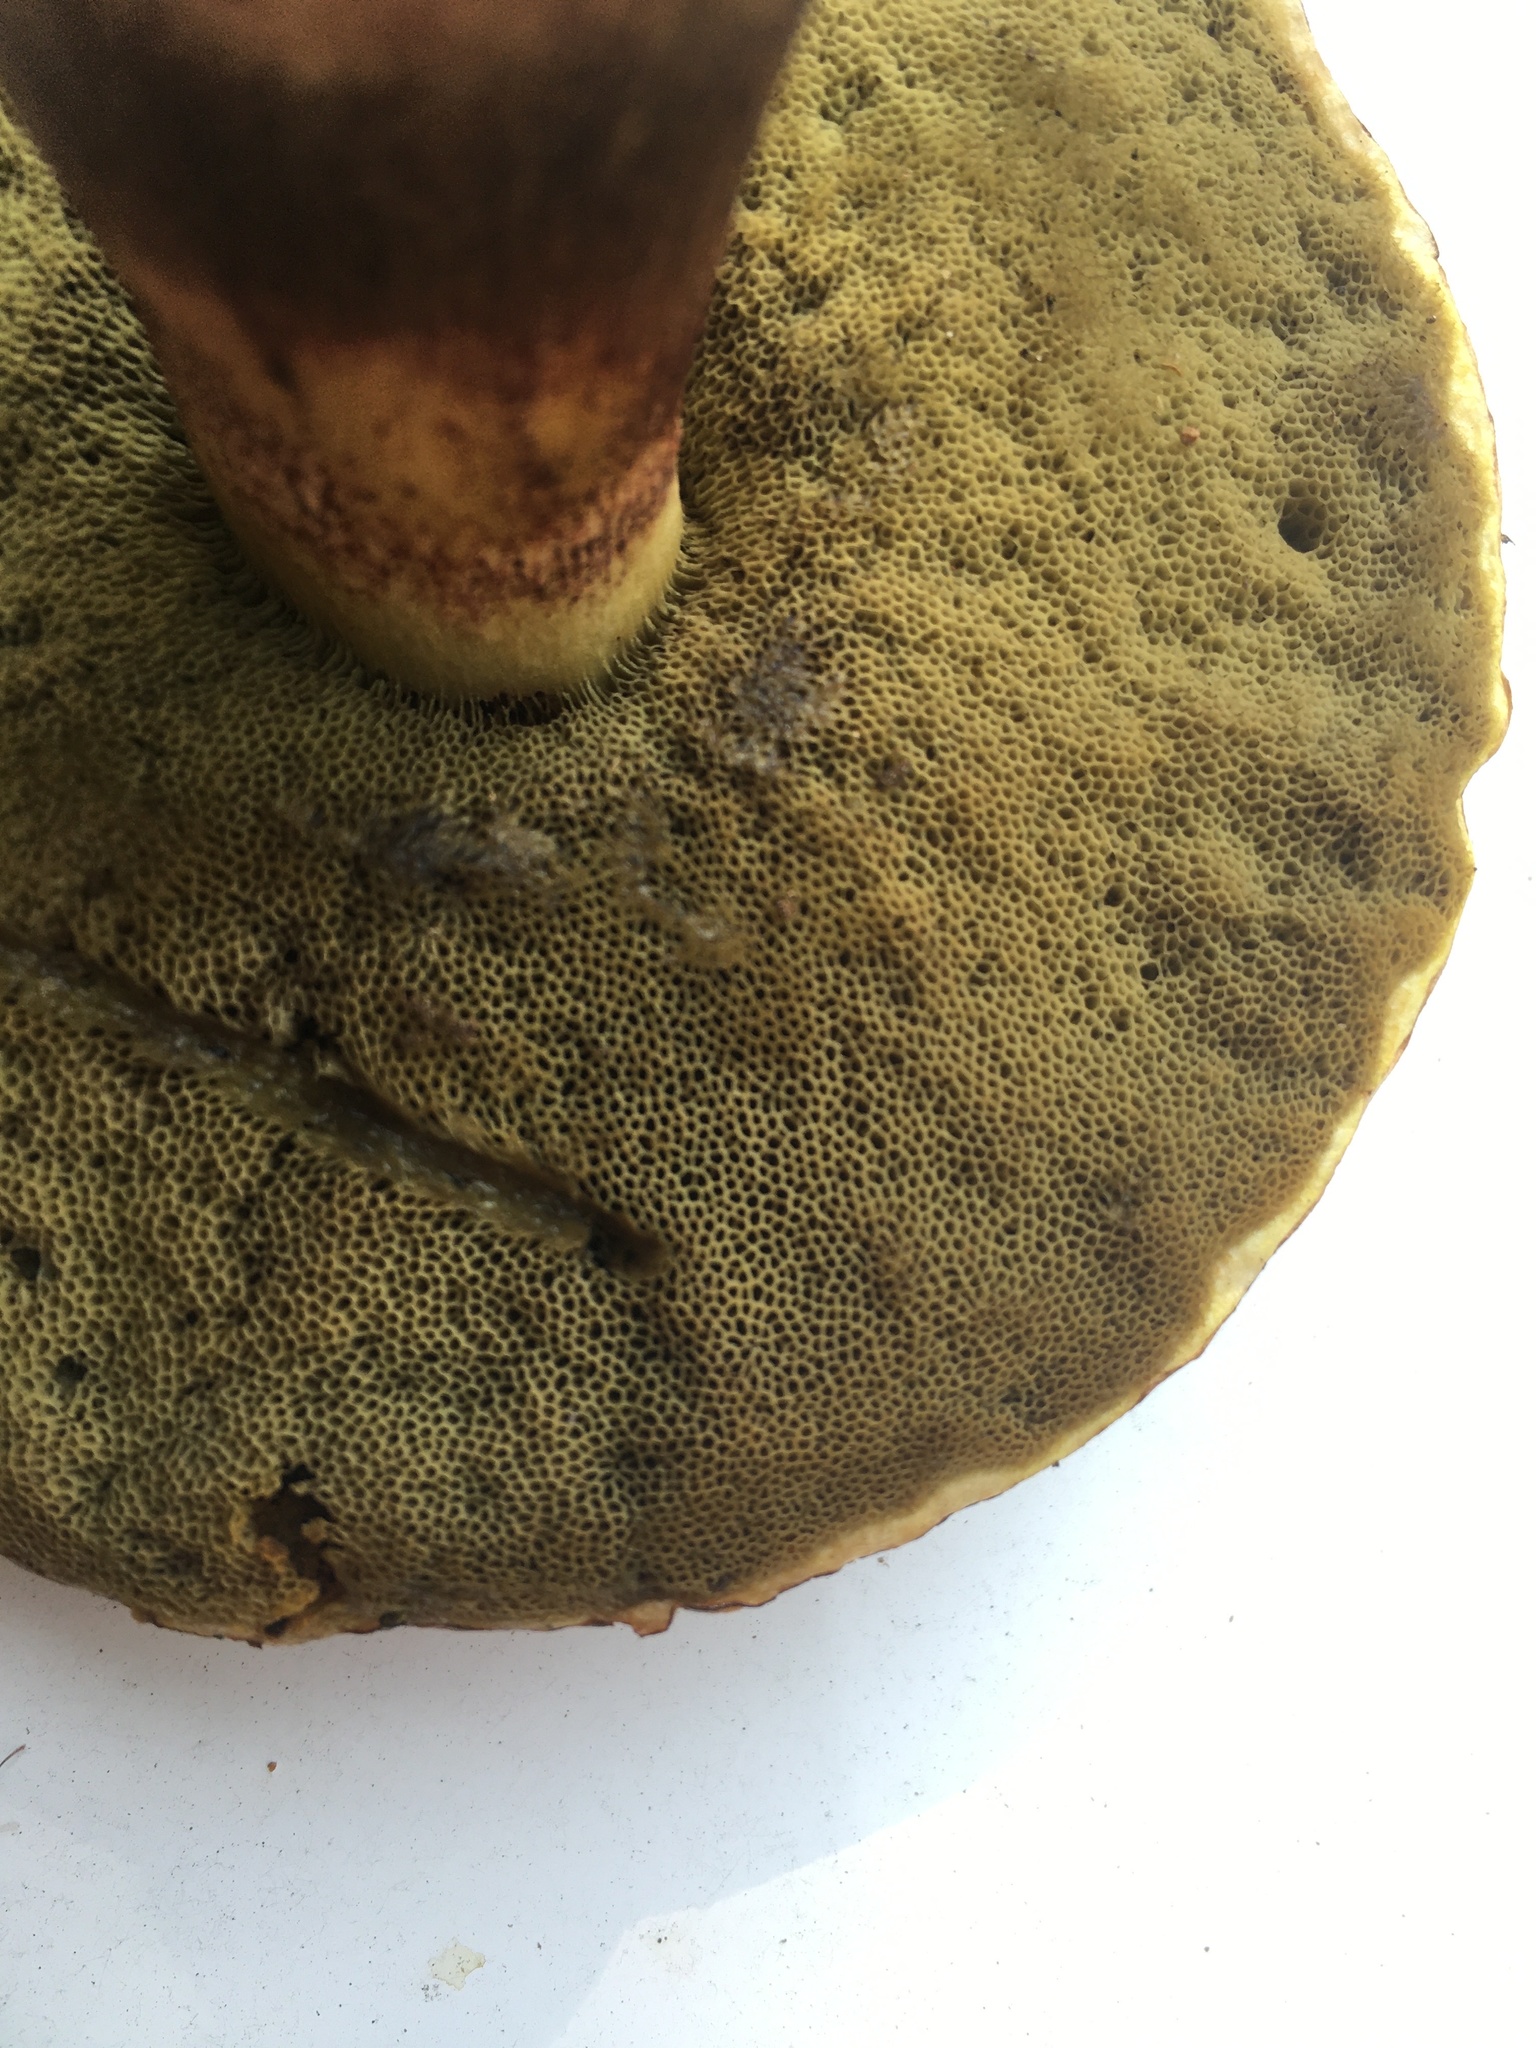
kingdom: Fungi
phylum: Basidiomycota
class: Agaricomycetes
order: Boletales
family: Boletaceae
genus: Hemileccinum
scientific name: Hemileccinum hortonii
